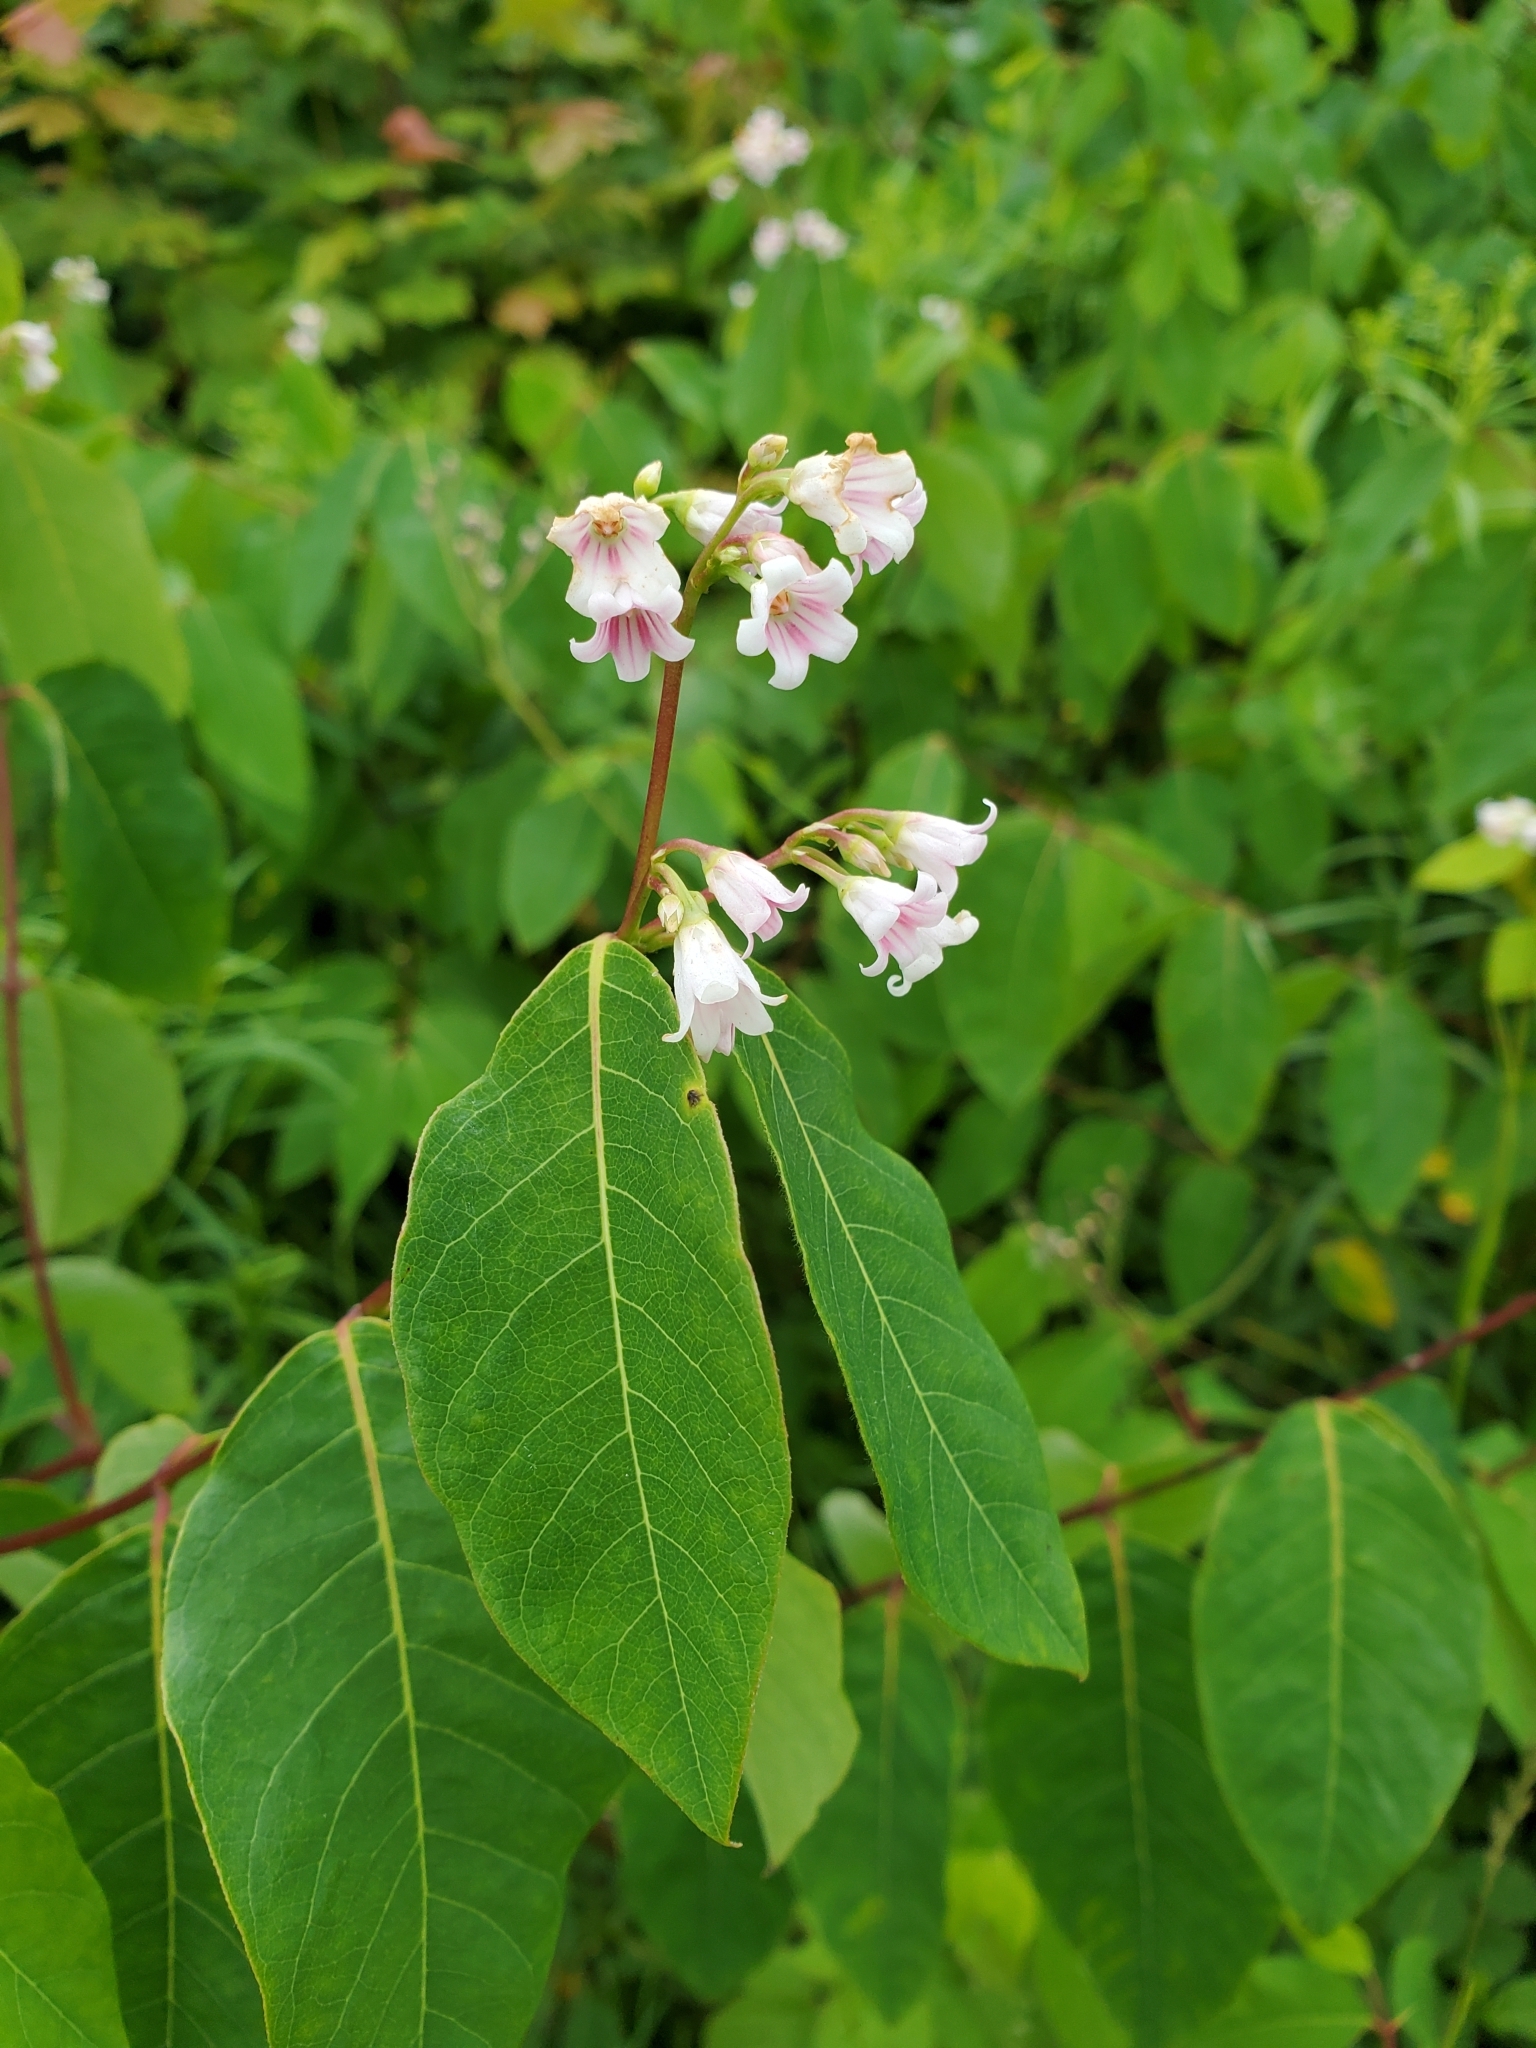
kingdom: Plantae
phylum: Tracheophyta
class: Magnoliopsida
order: Gentianales
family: Apocynaceae
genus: Apocynum
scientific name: Apocynum androsaemifolium
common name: Spreading dogbane
